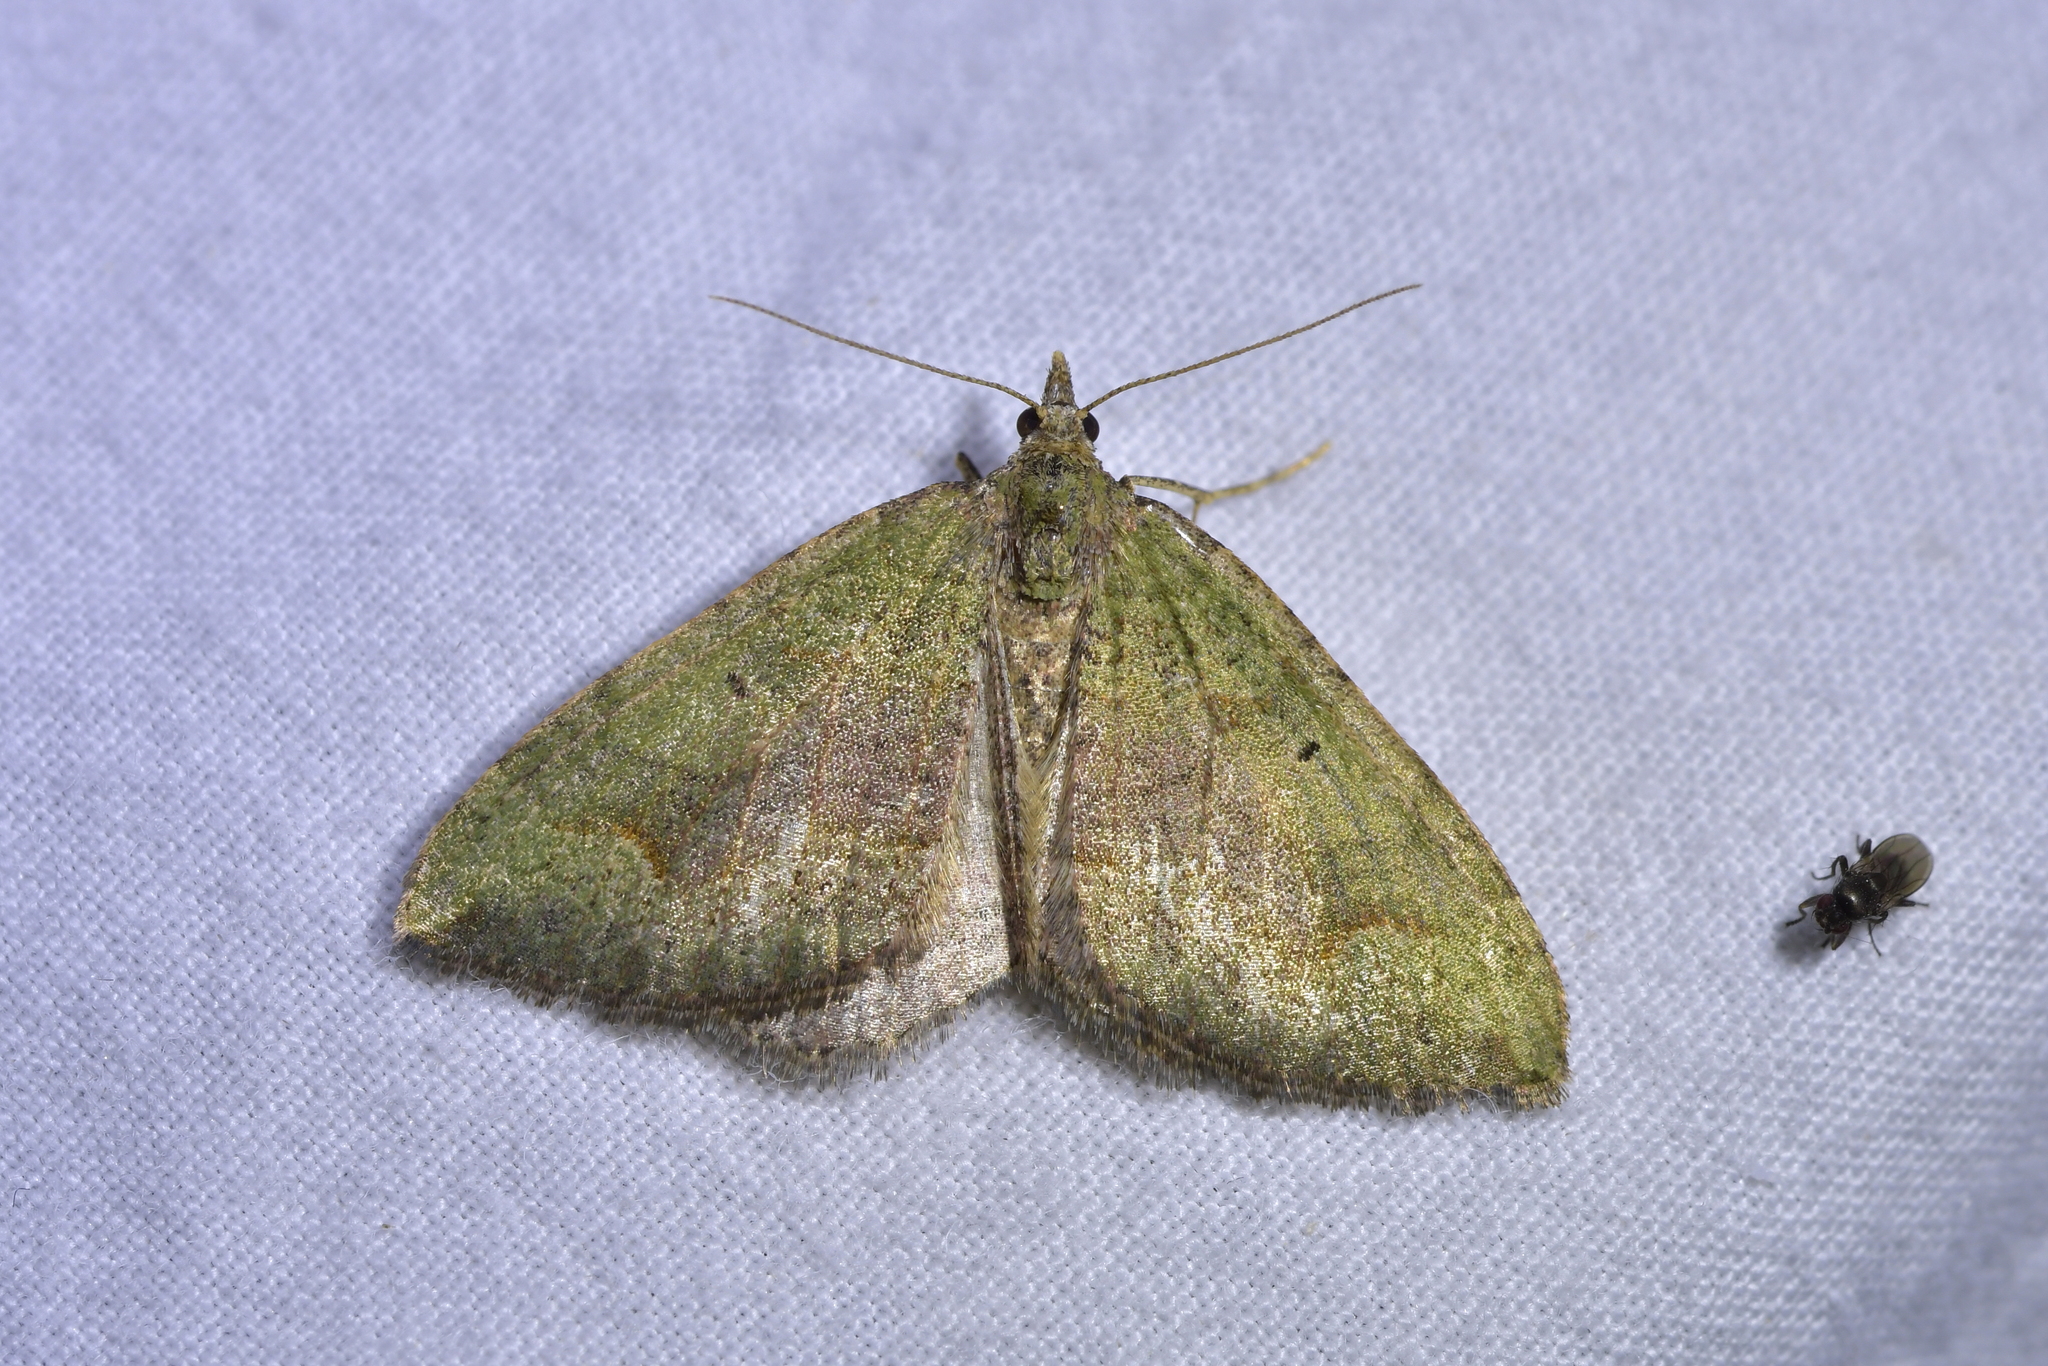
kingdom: Animalia
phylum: Arthropoda
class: Insecta
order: Lepidoptera
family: Geometridae
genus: Epyaxa
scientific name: Epyaxa rosearia
